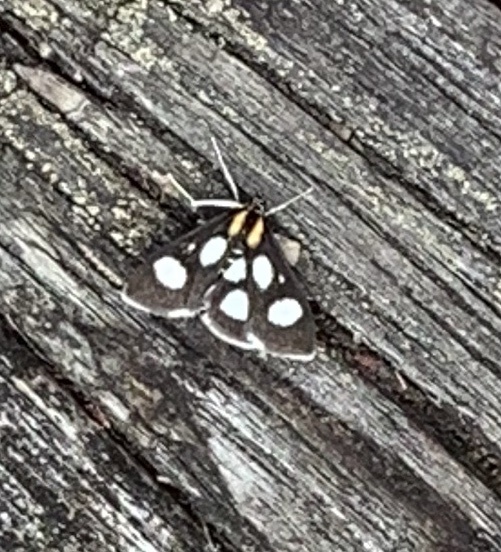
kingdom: Animalia
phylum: Arthropoda
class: Insecta
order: Lepidoptera
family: Crambidae
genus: Anania
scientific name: Anania funebris
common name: White-spotted sable moth
